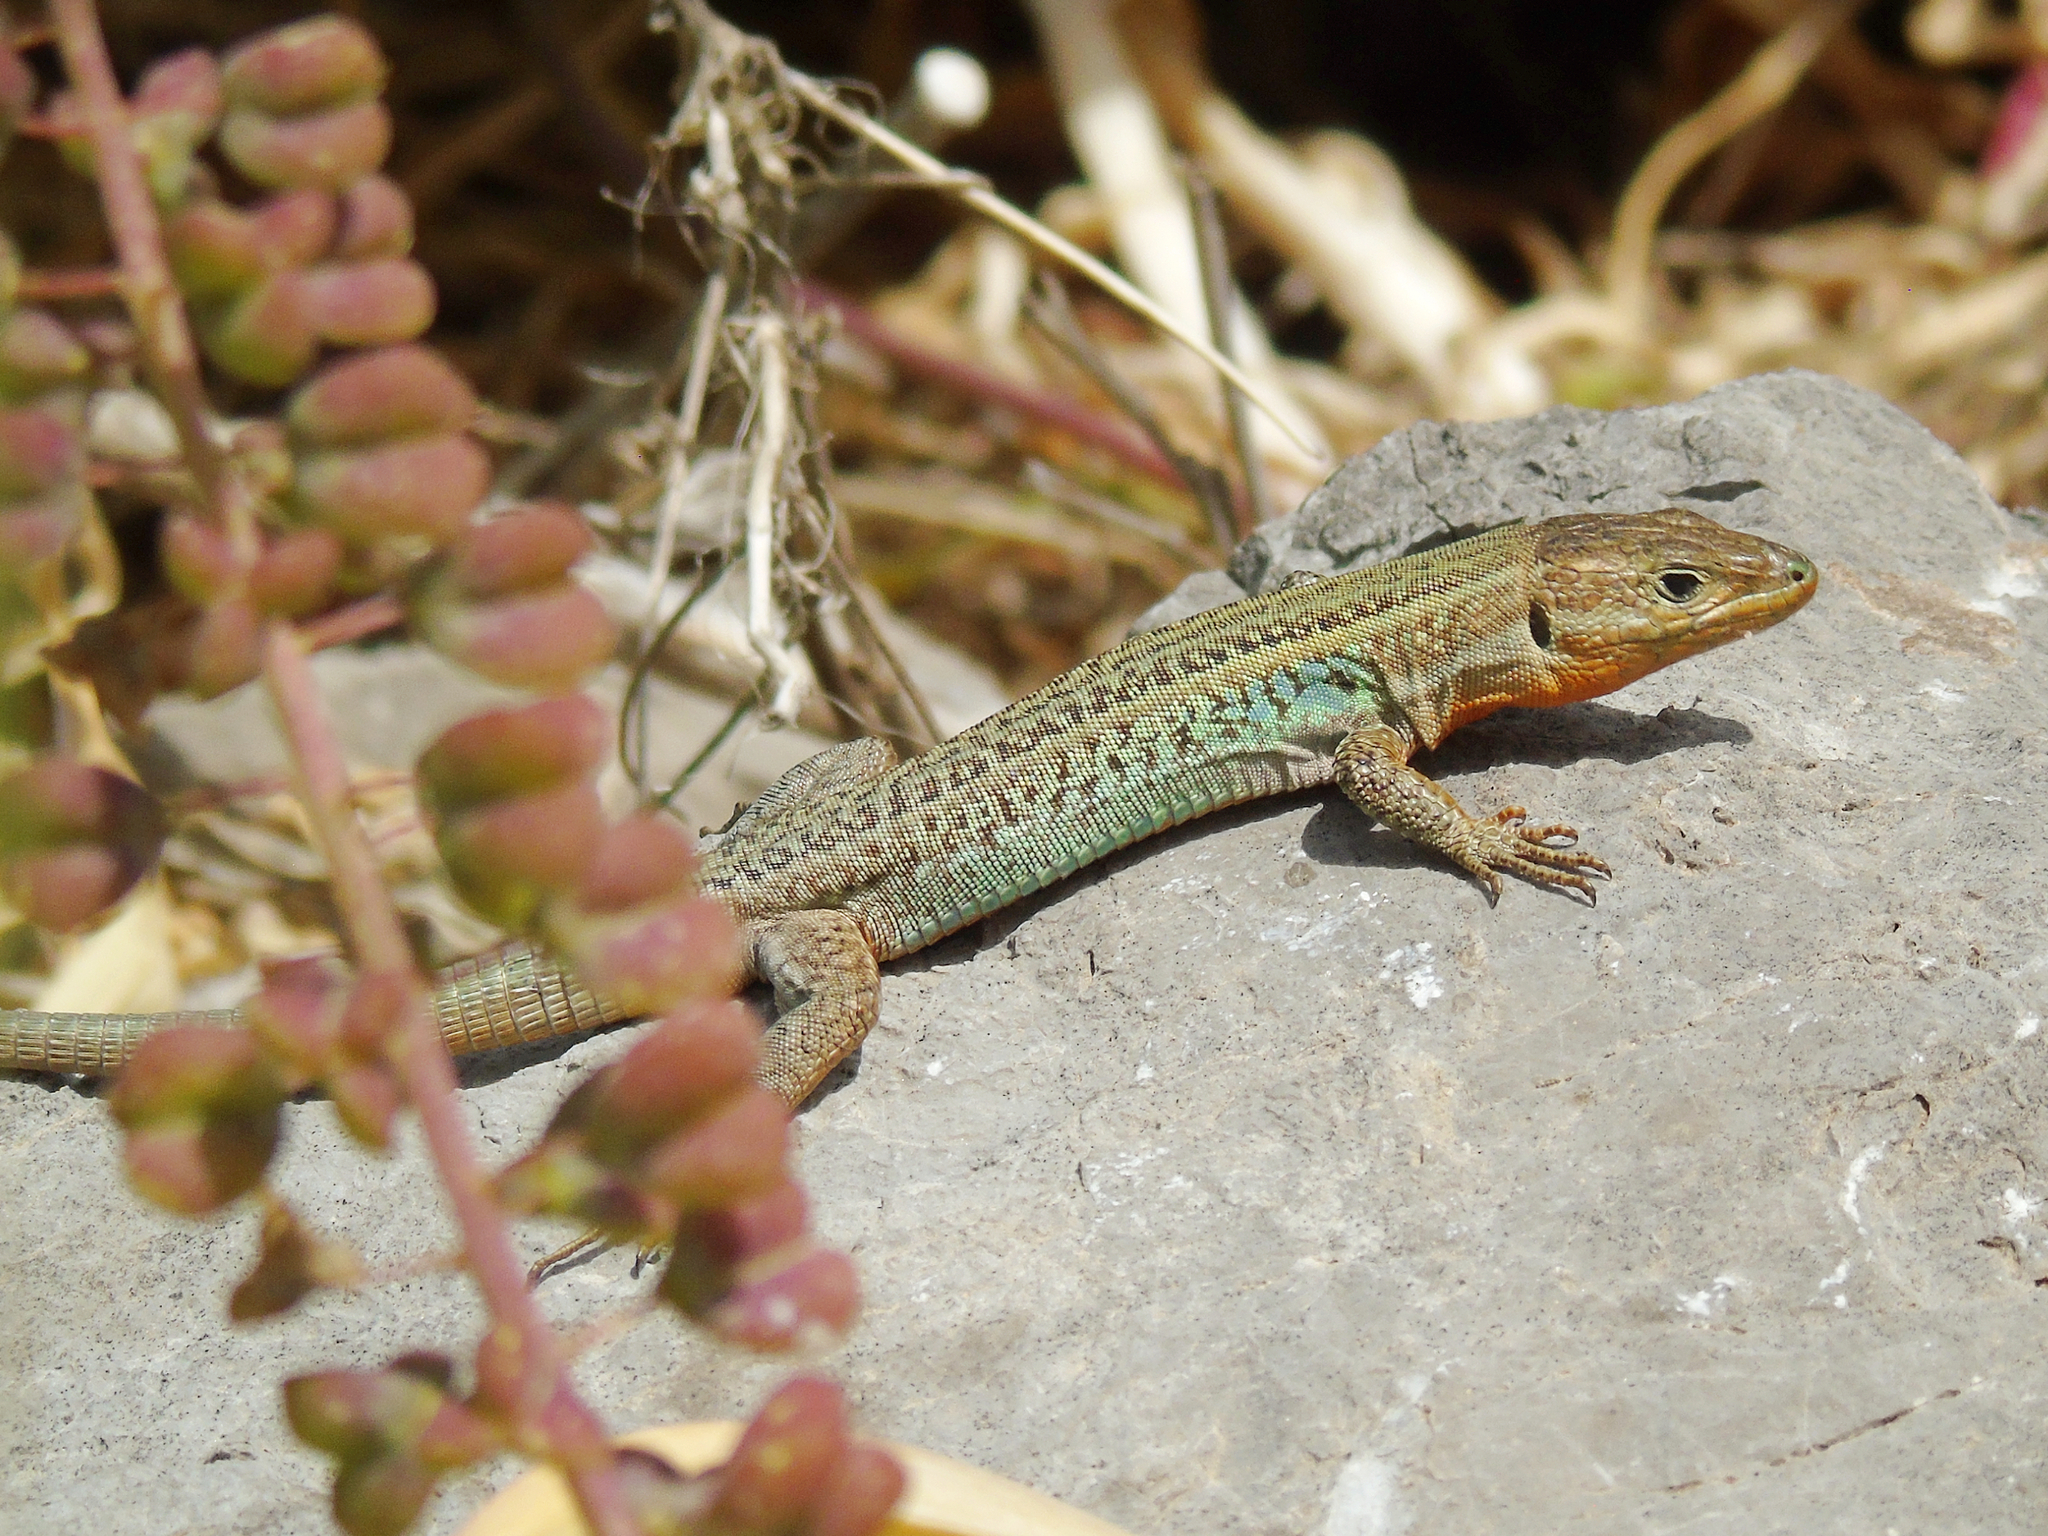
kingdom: Animalia
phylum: Chordata
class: Squamata
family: Lacertidae
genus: Podarcis
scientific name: Podarcis peloponnesiacus
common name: Peloponnese wall lizard
